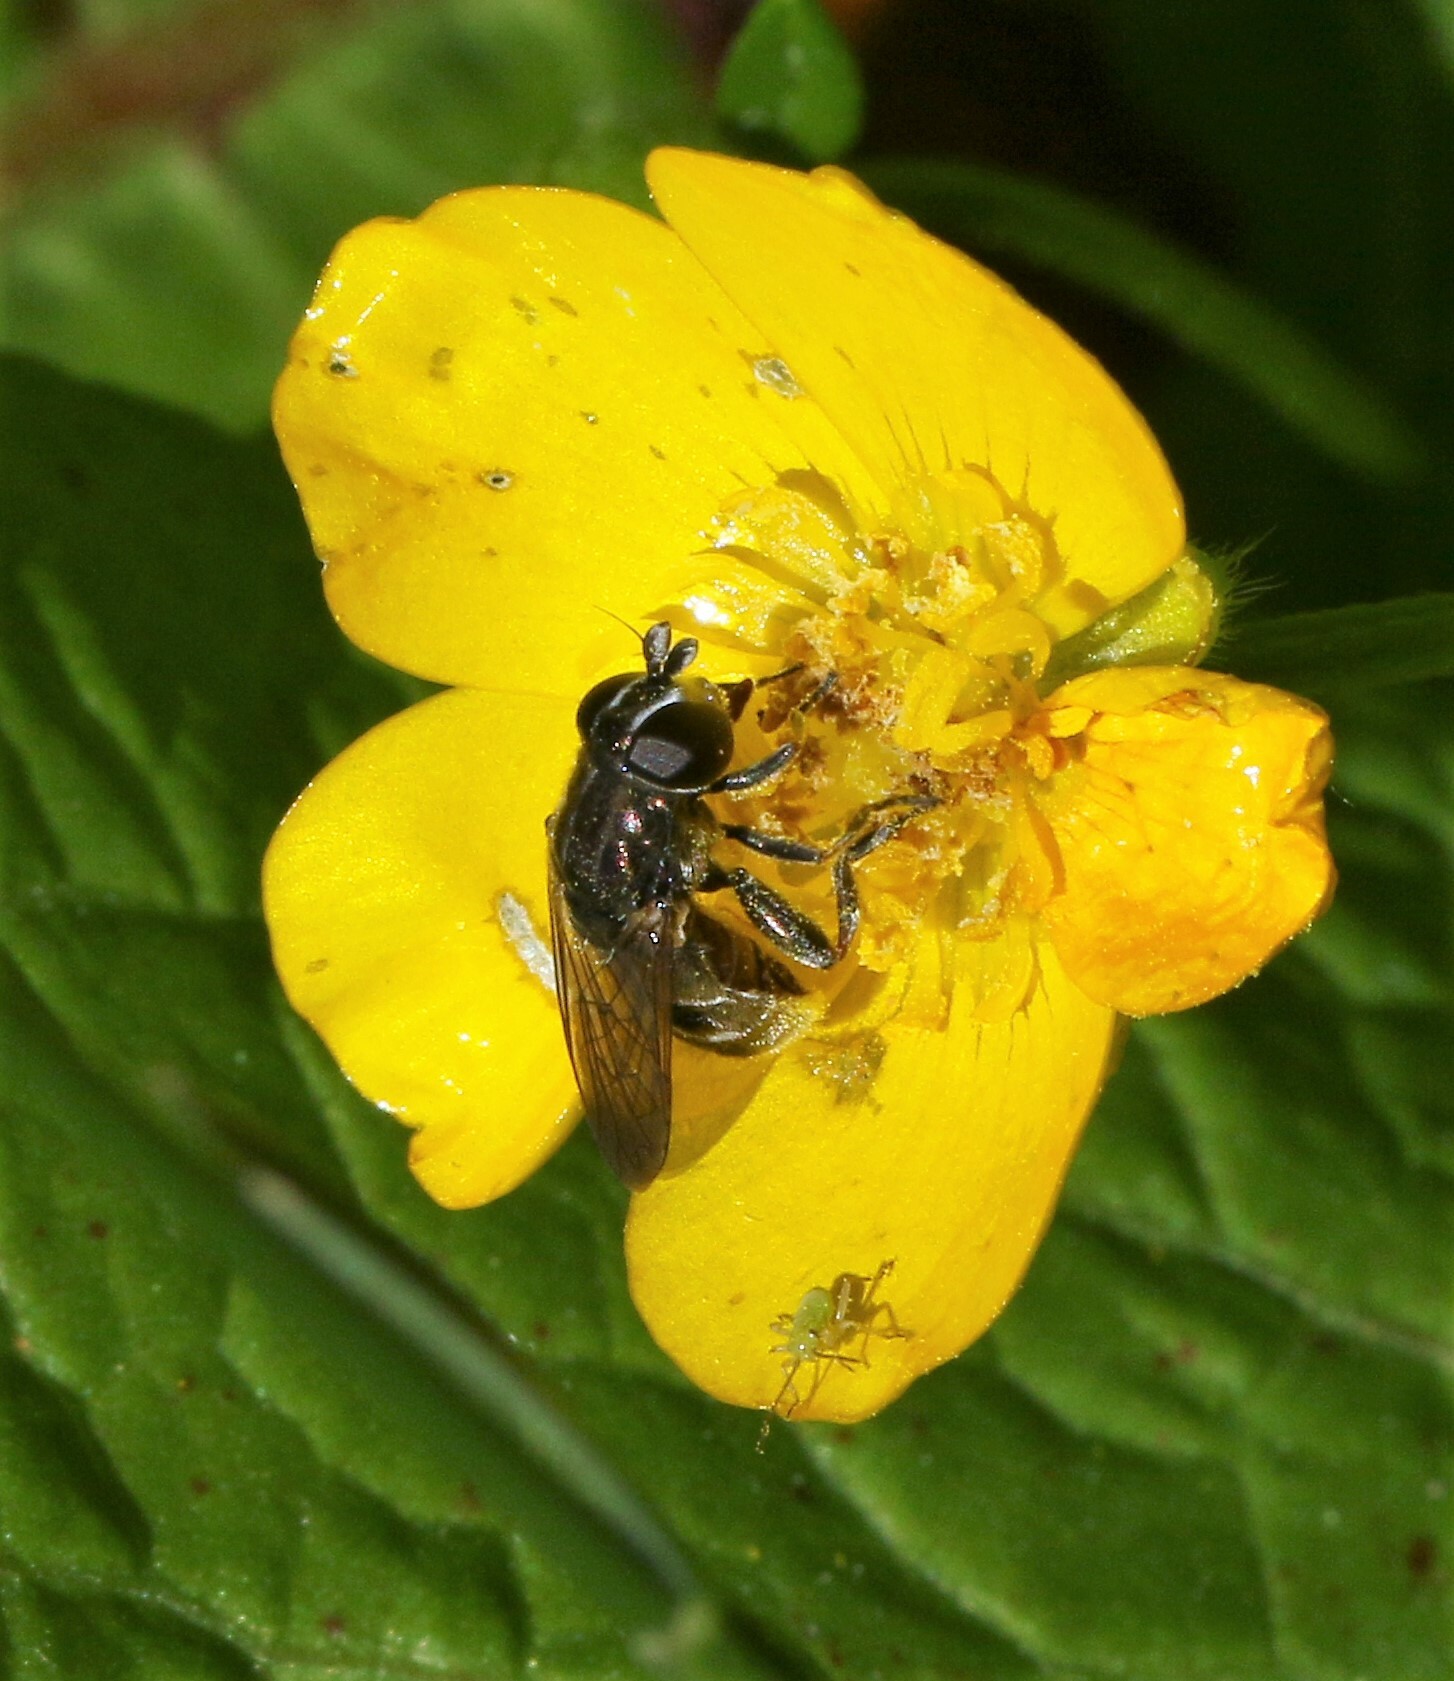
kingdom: Animalia
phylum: Arthropoda
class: Insecta
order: Diptera
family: Syrphidae
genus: Eumerus
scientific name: Eumerus
